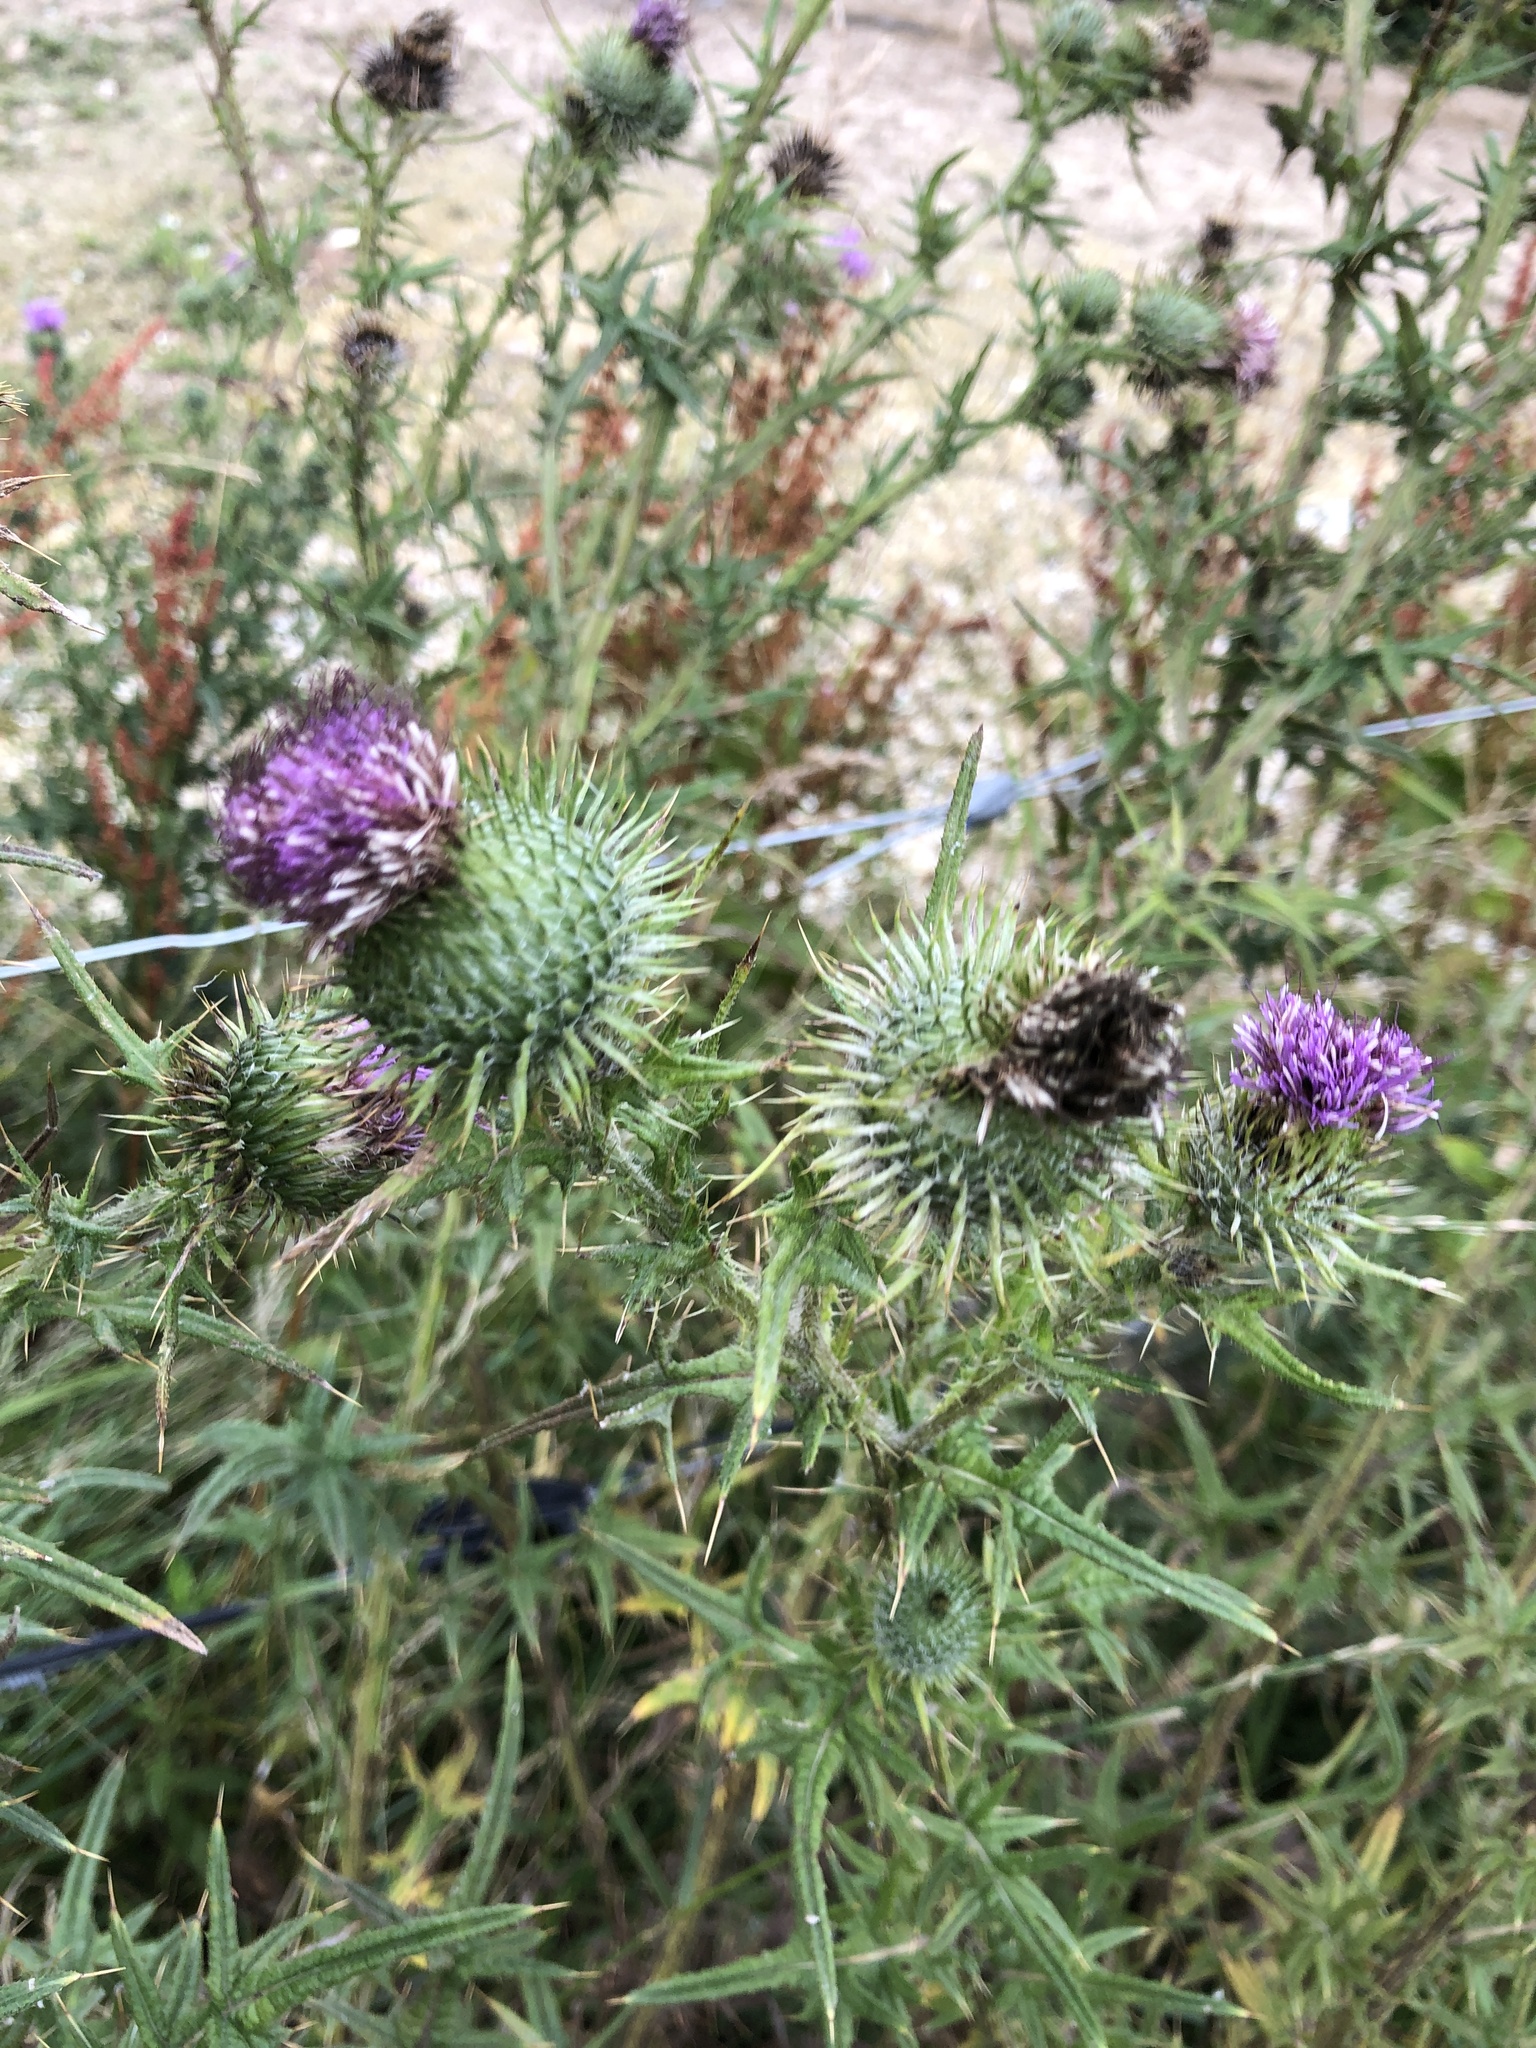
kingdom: Plantae
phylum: Tracheophyta
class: Magnoliopsida
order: Asterales
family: Asteraceae
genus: Cirsium
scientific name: Cirsium vulgare
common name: Bull thistle
